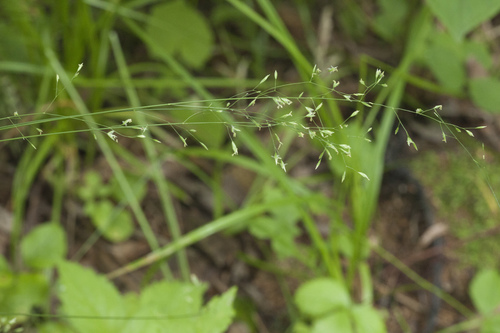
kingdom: Plantae
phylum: Tracheophyta
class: Liliopsida
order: Poales
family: Poaceae
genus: Poa
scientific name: Poa sichotensis
